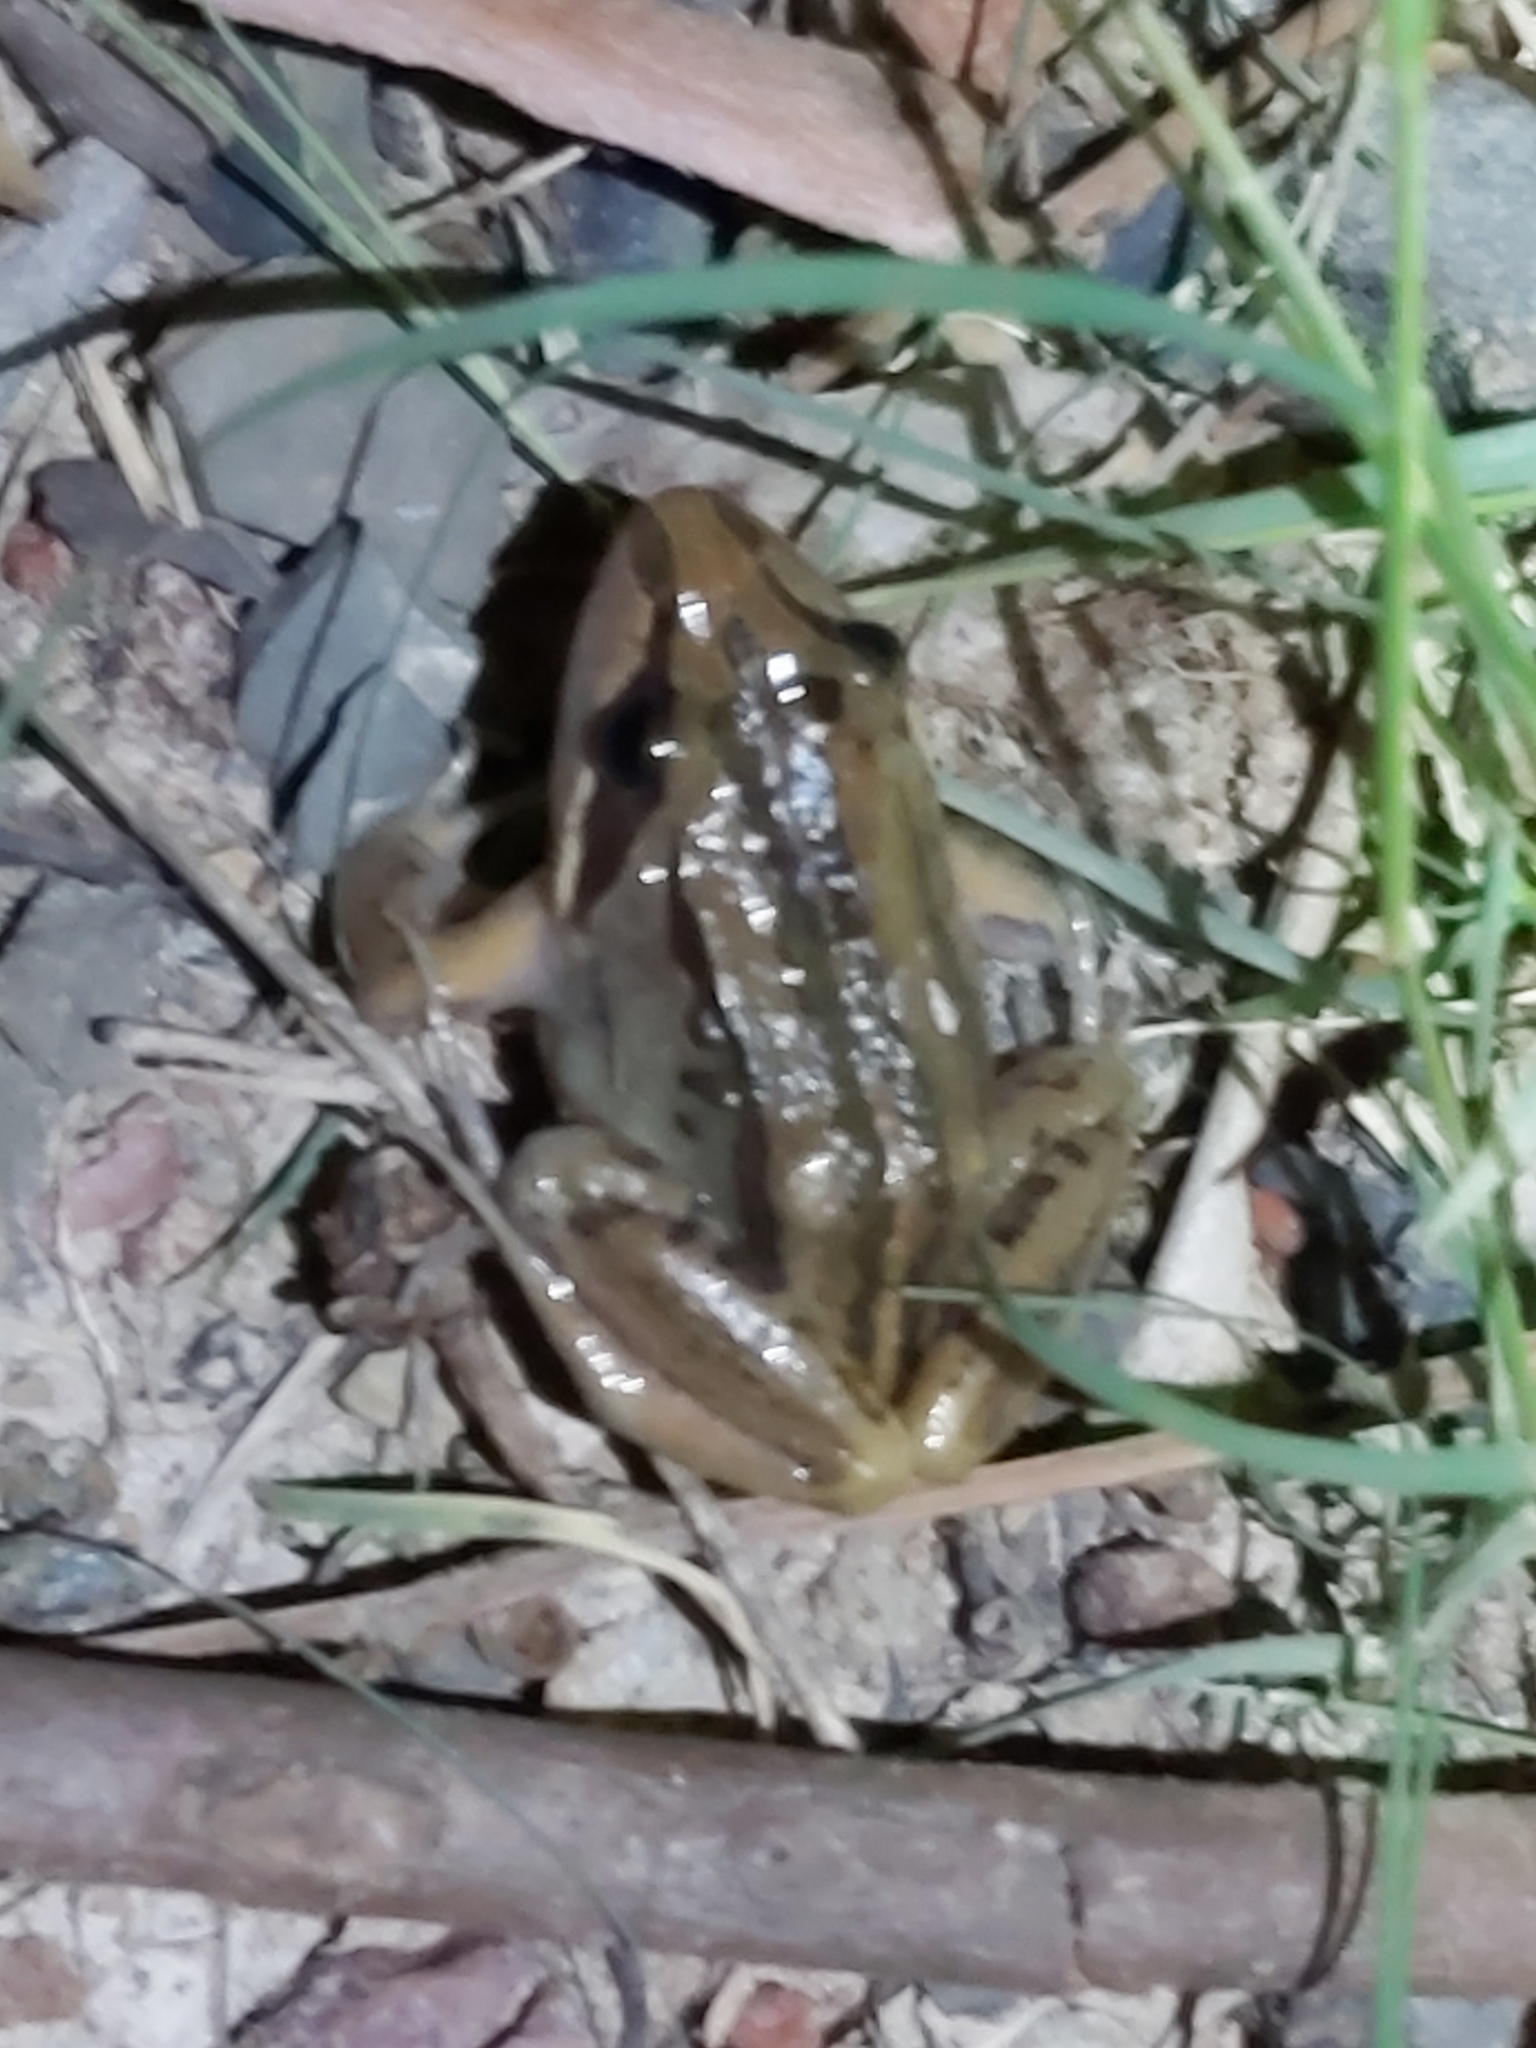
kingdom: Animalia
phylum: Chordata
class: Amphibia
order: Anura
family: Limnodynastidae
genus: Limnodynastes
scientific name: Limnodynastes peronii
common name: Brown frog
